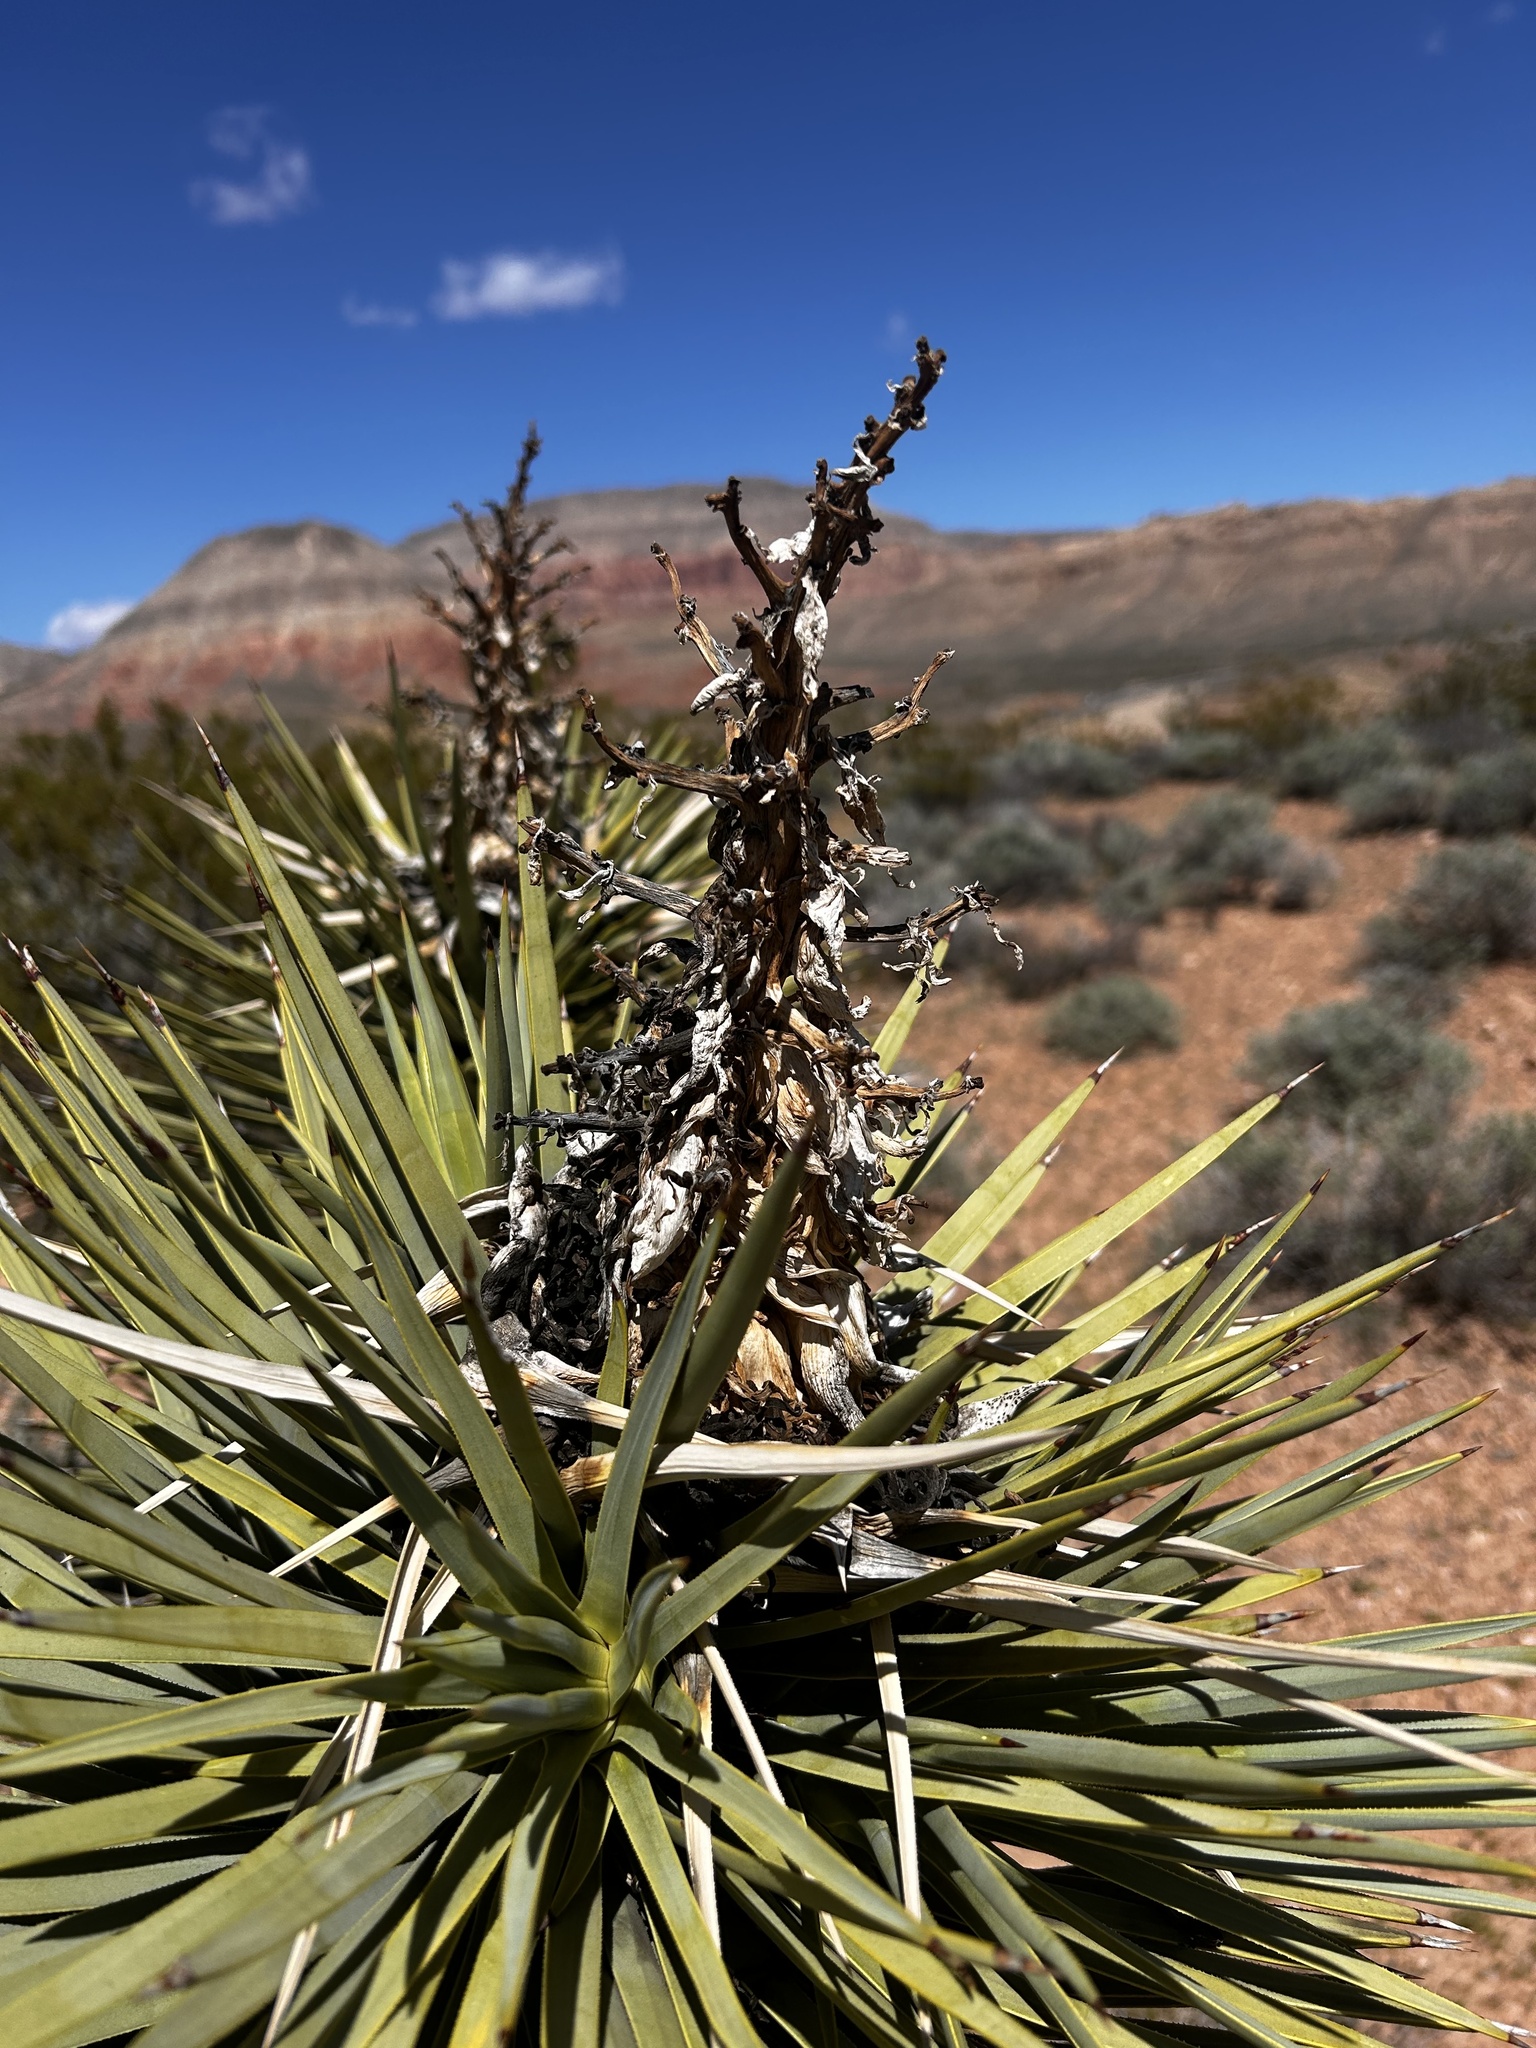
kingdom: Plantae
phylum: Tracheophyta
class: Liliopsida
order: Asparagales
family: Asparagaceae
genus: Yucca
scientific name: Yucca brevifolia
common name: Joshua tree
